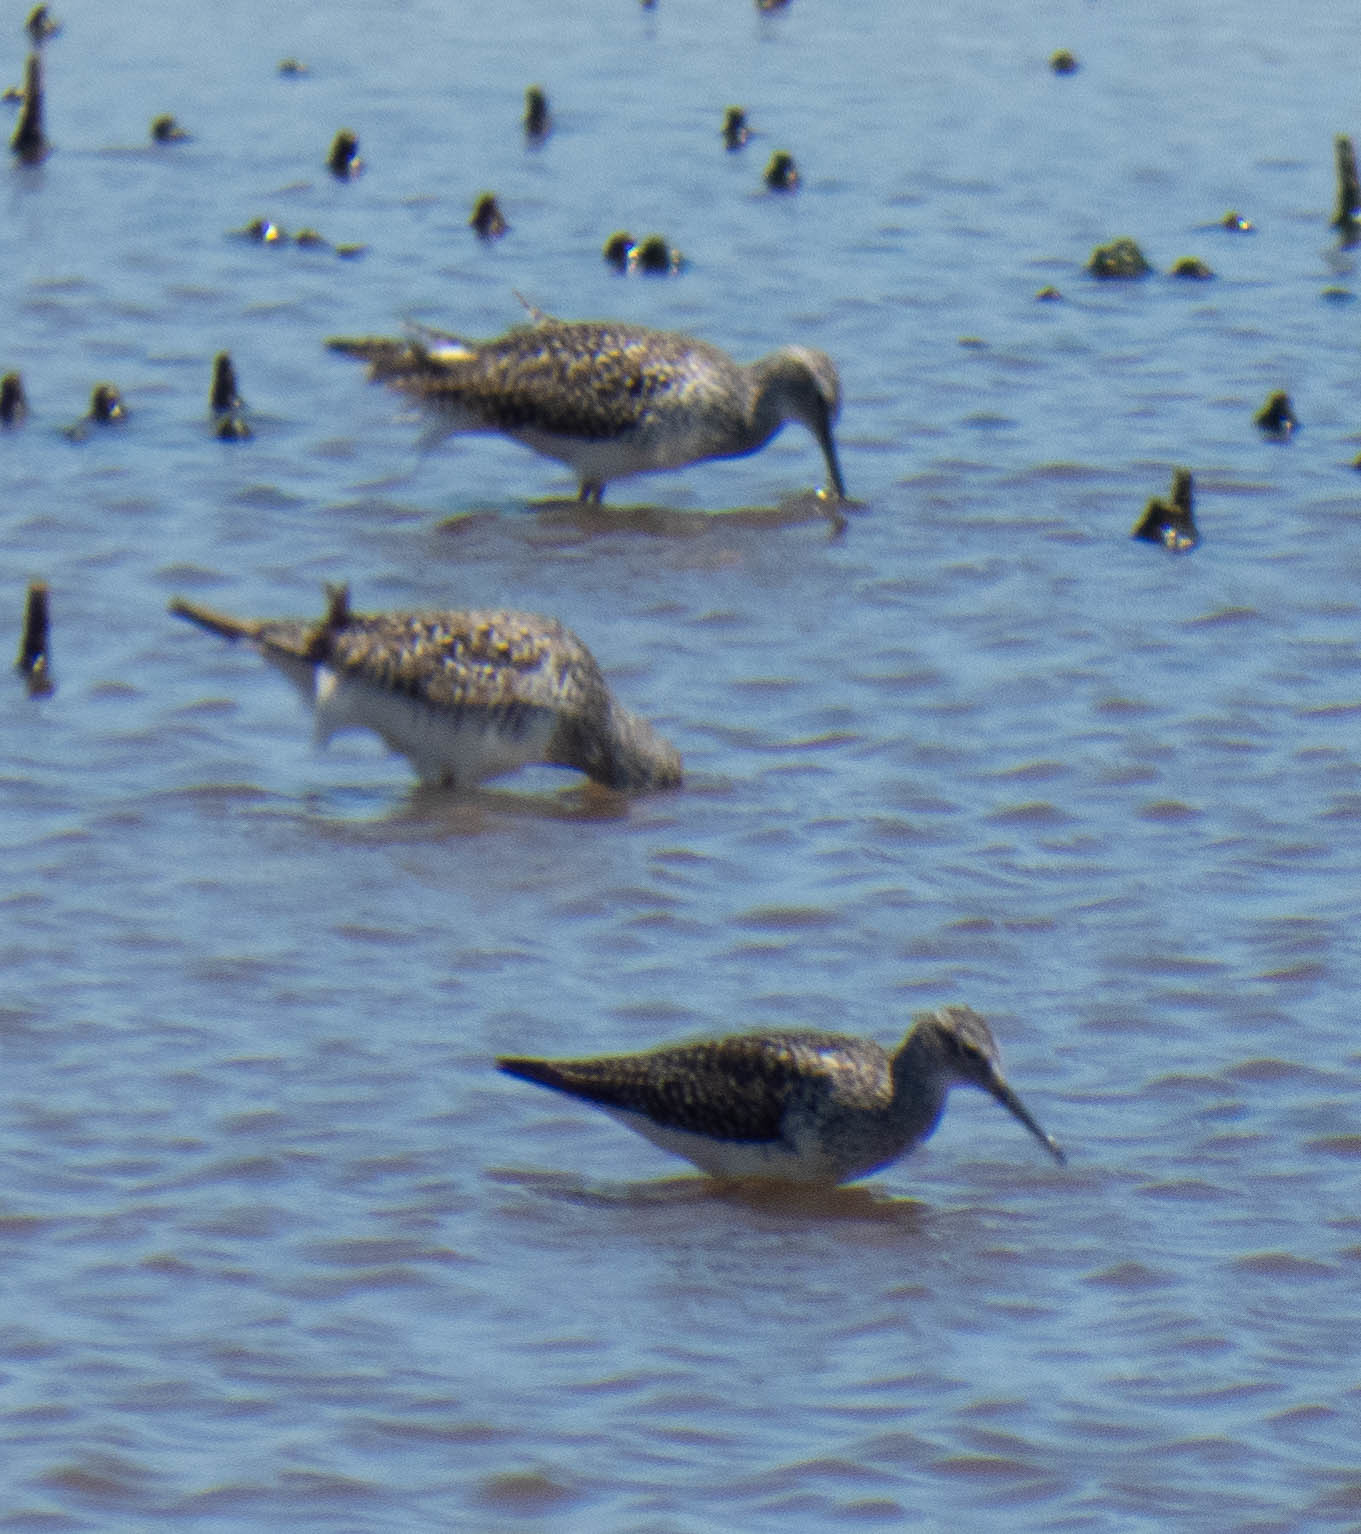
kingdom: Animalia
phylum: Chordata
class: Aves
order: Charadriiformes
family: Scolopacidae
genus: Tringa
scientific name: Tringa melanoleuca
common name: Greater yellowlegs
